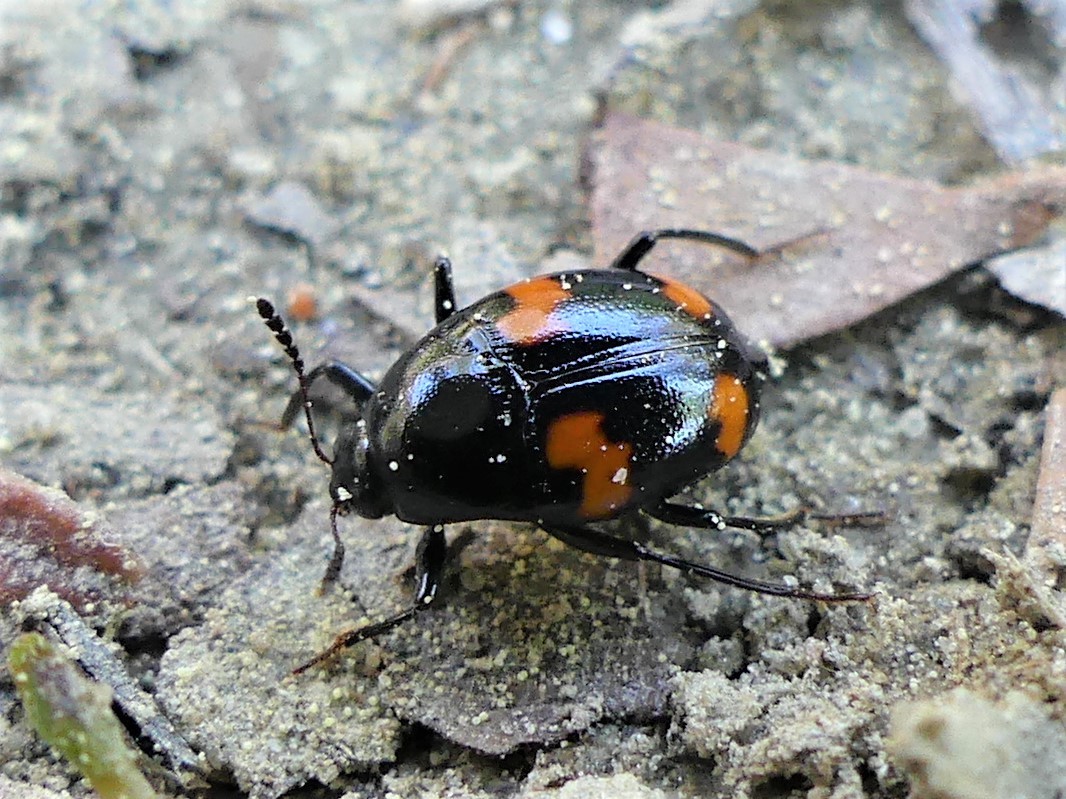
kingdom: Animalia
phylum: Arthropoda
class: Insecta
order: Coleoptera
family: Staphylinidae
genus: Scaphidium
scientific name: Scaphidium quadrimaculatum
